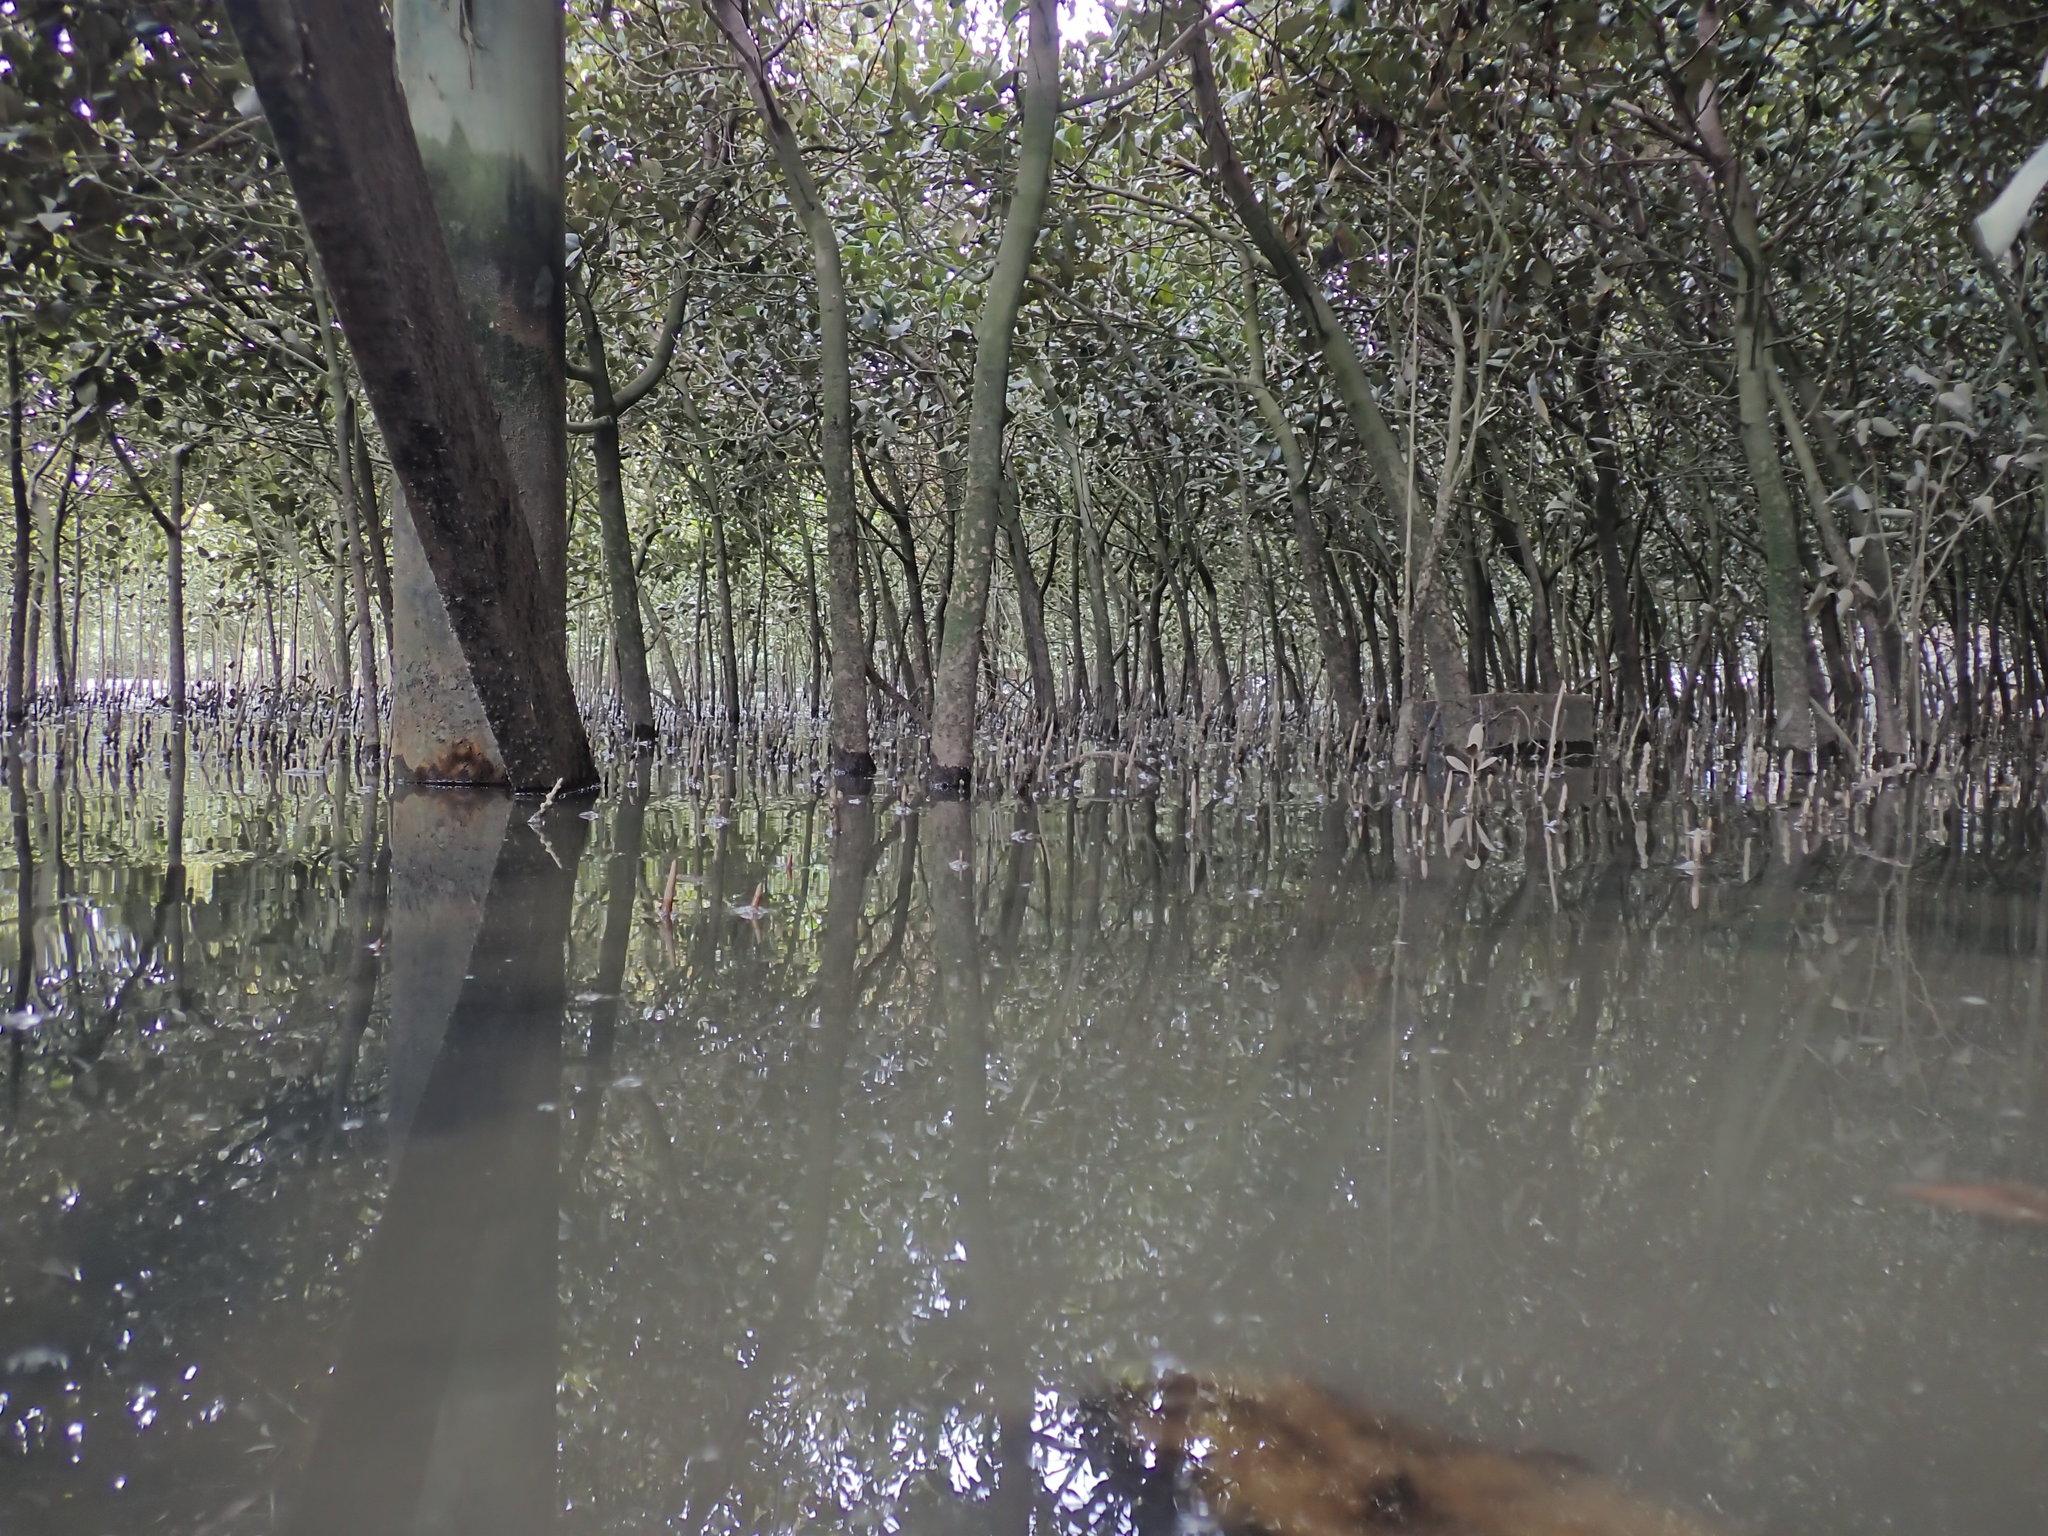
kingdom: Plantae
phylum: Tracheophyta
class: Magnoliopsida
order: Lamiales
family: Acanthaceae
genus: Avicennia
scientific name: Avicennia marina
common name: Gray mangrove
